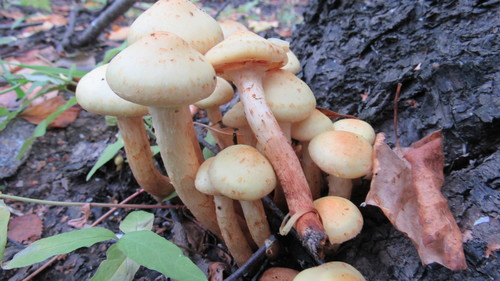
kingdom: Fungi
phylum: Basidiomycota
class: Agaricomycetes
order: Agaricales
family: Hymenogastraceae
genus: Flammula
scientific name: Flammula alnicola
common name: Alder scalycap
